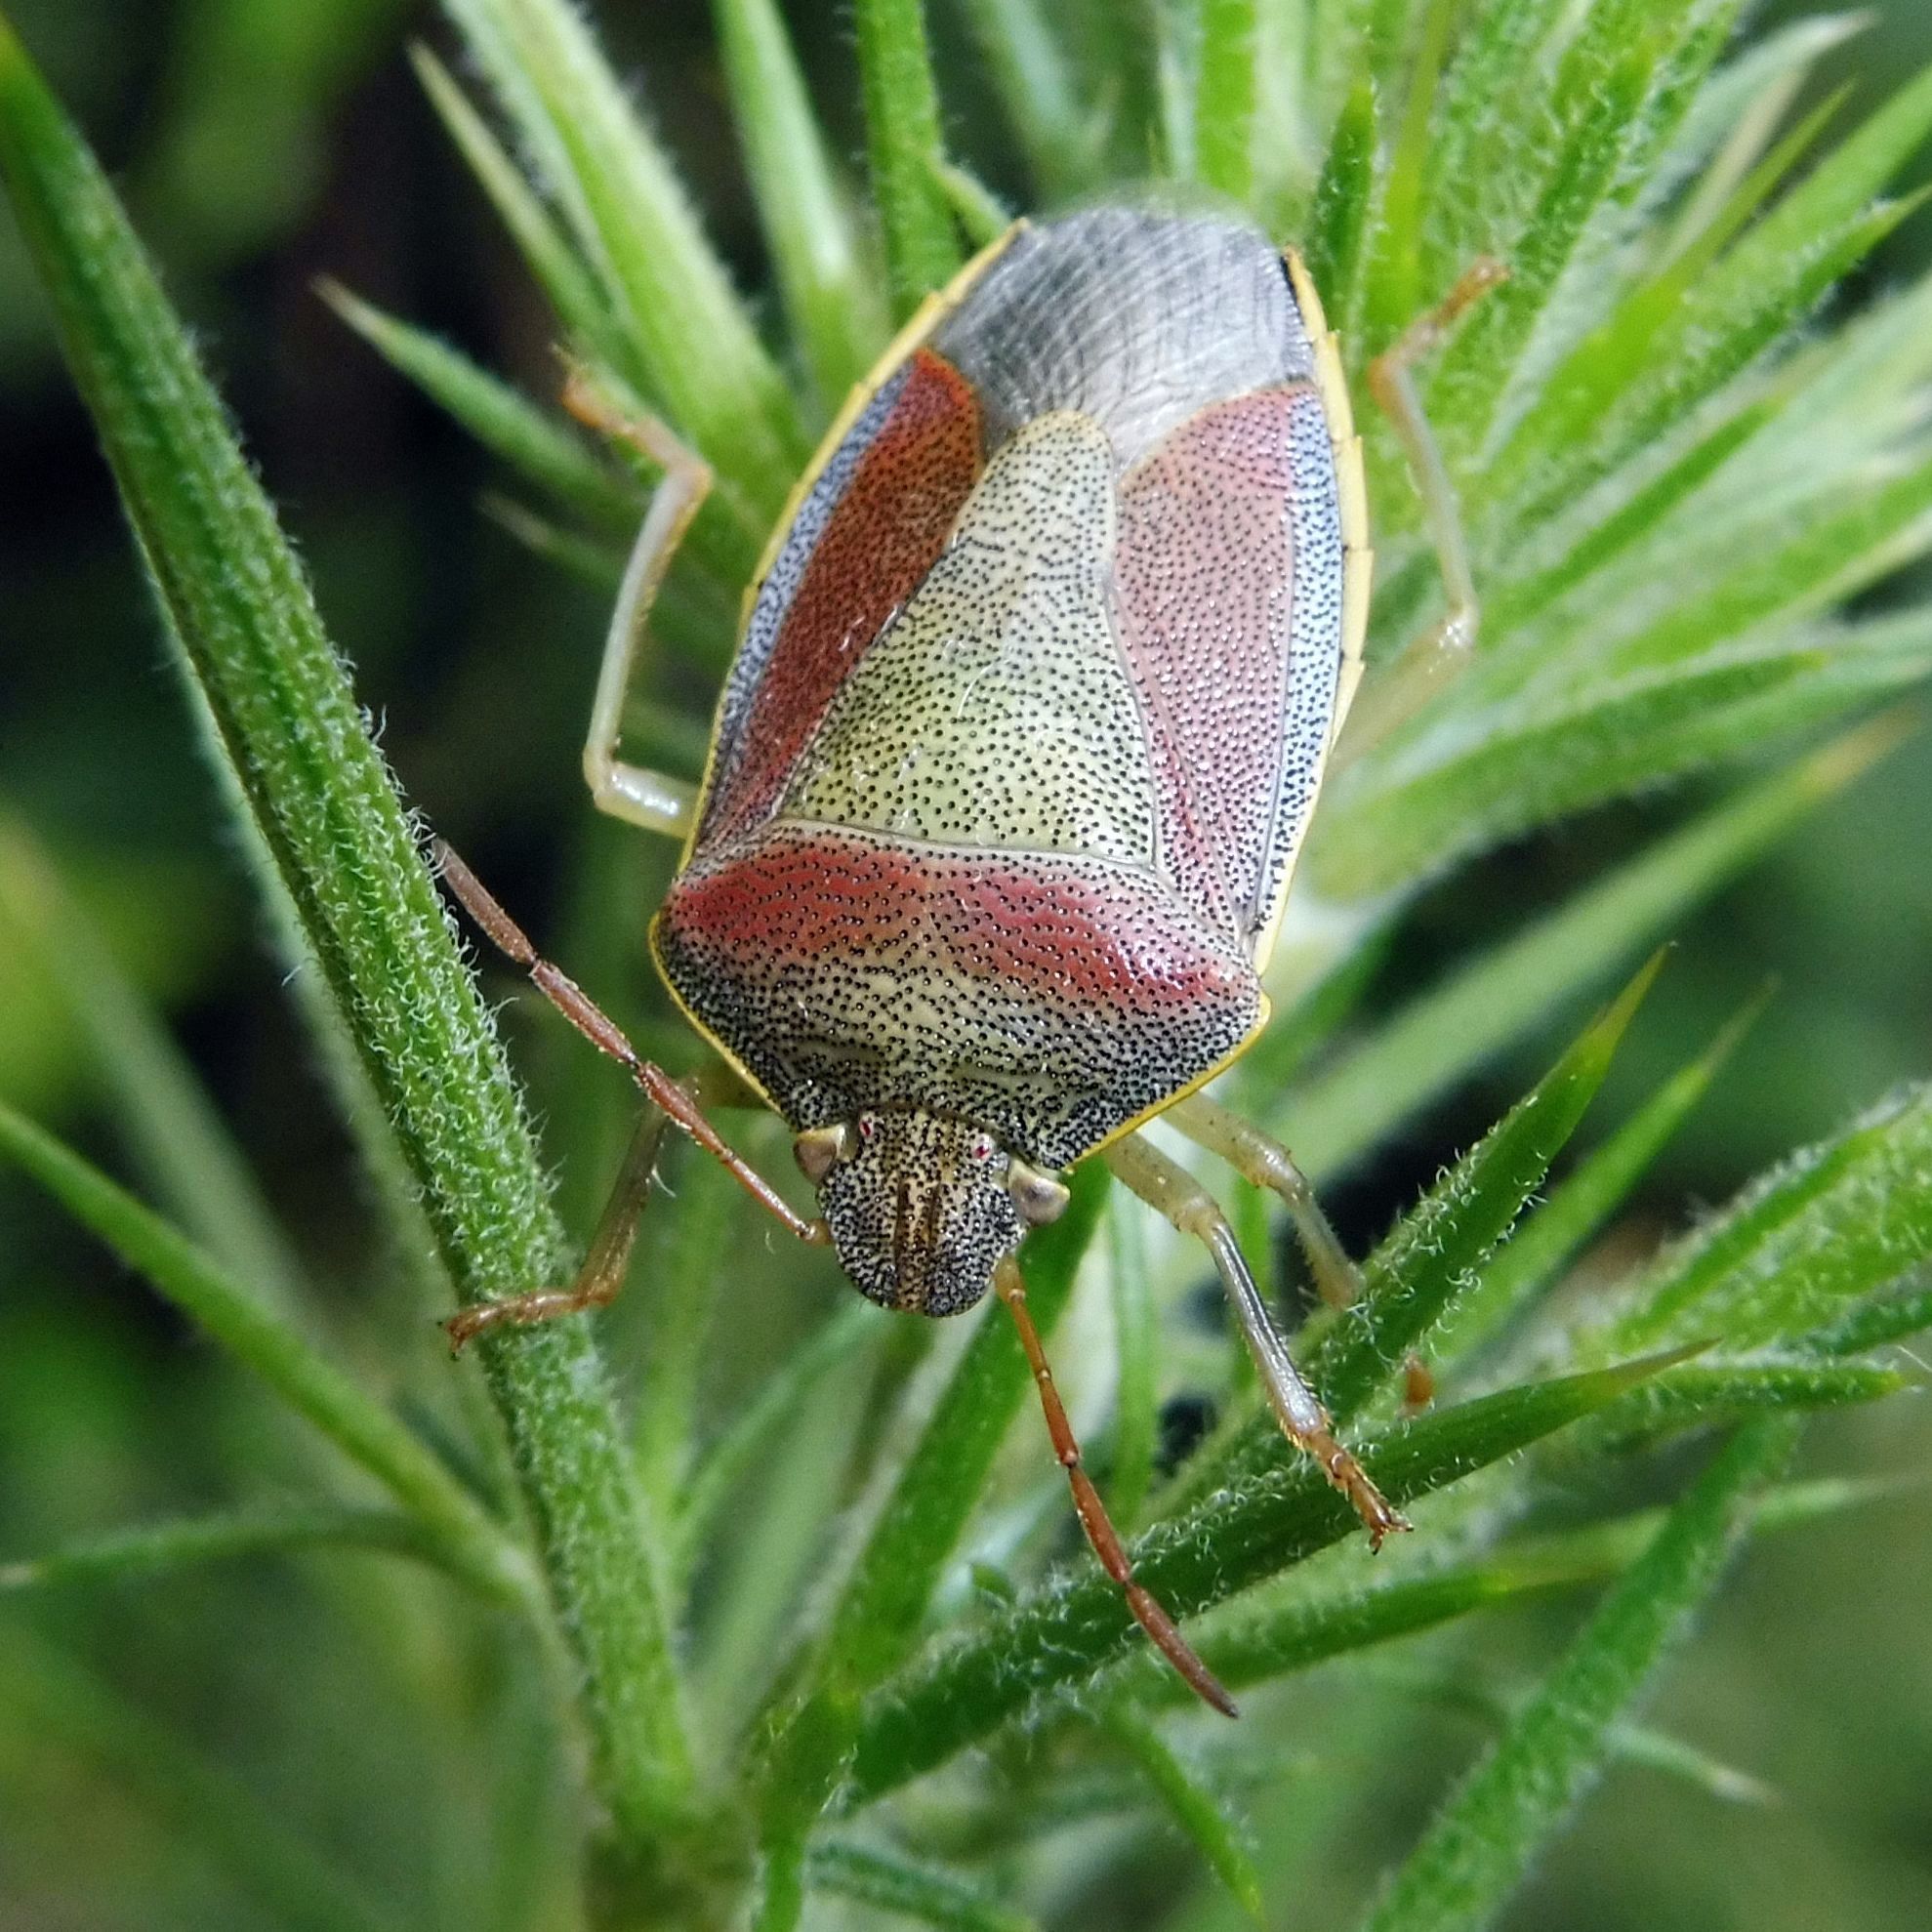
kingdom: Animalia
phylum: Arthropoda
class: Insecta
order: Hemiptera
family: Pentatomidae
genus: Piezodorus
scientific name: Piezodorus lituratus
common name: Stink bug
